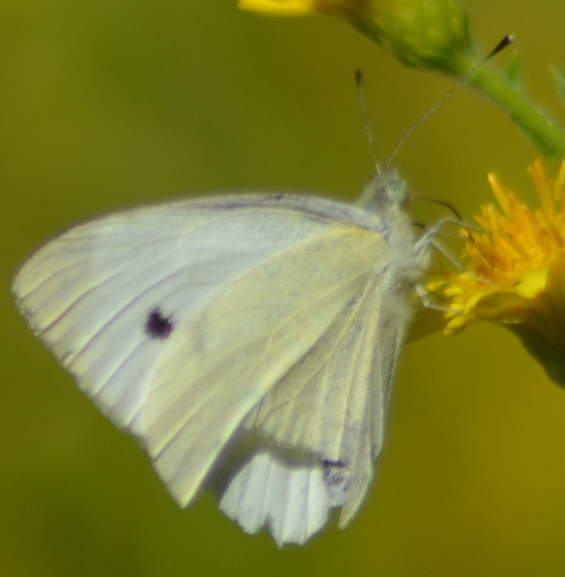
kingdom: Animalia
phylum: Arthropoda
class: Insecta
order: Lepidoptera
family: Pieridae
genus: Pieris
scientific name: Pieris rapae
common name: Small white
